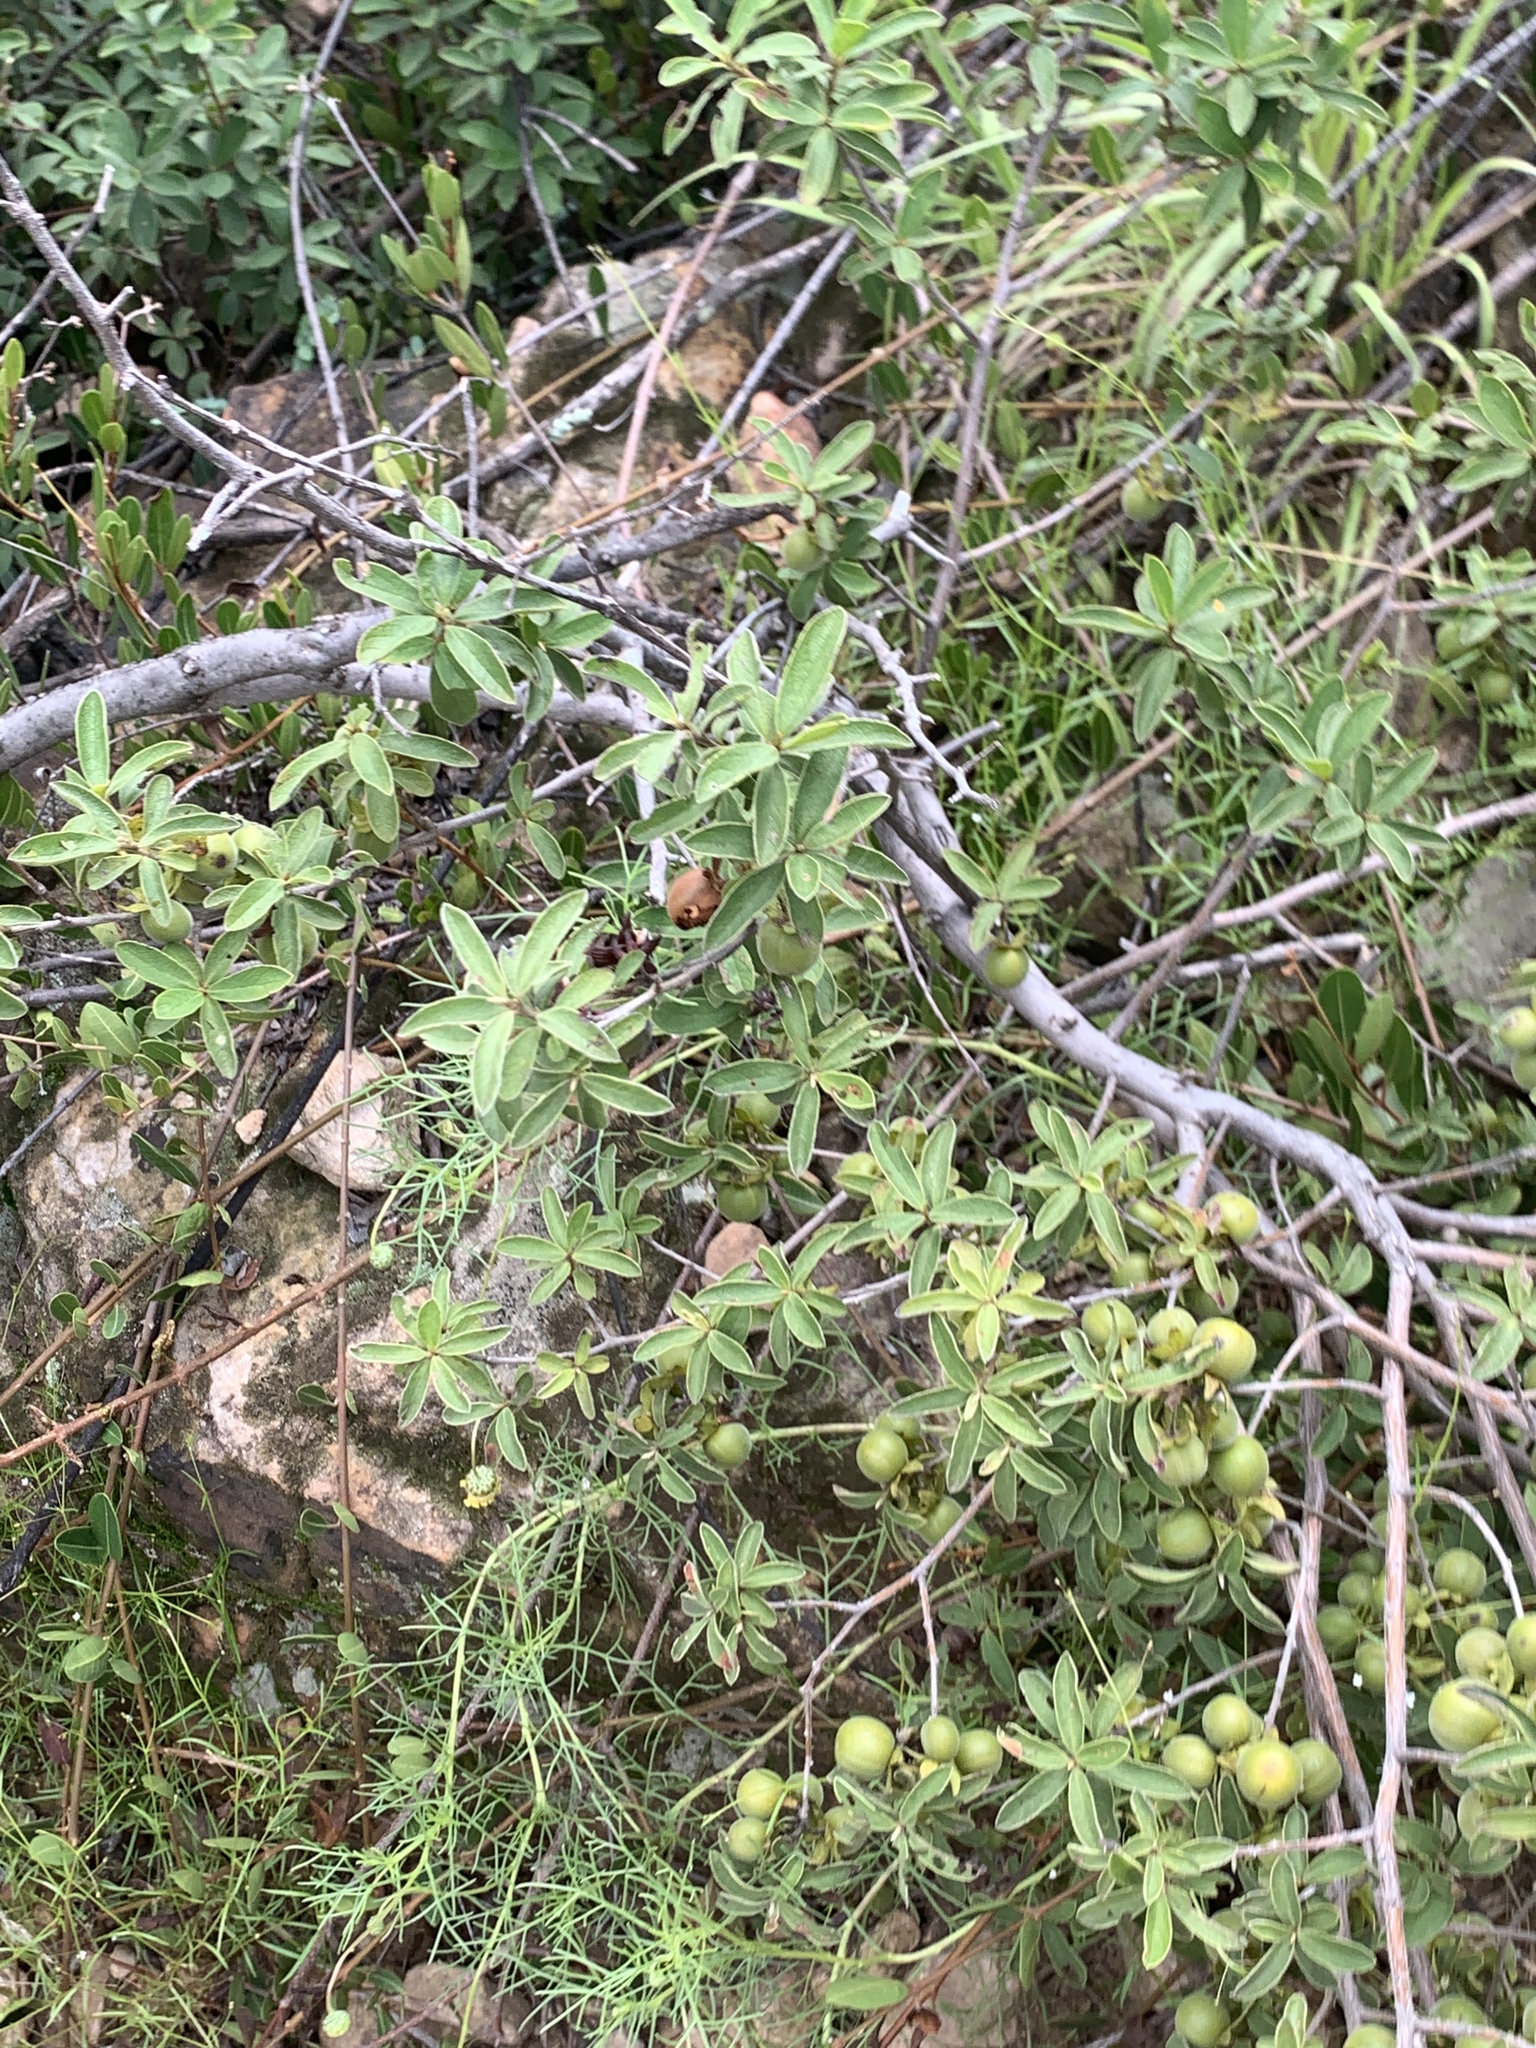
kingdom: Plantae
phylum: Tracheophyta
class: Magnoliopsida
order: Ericales
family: Ebenaceae
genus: Diospyros
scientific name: Diospyros lycioides
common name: Red star apple
